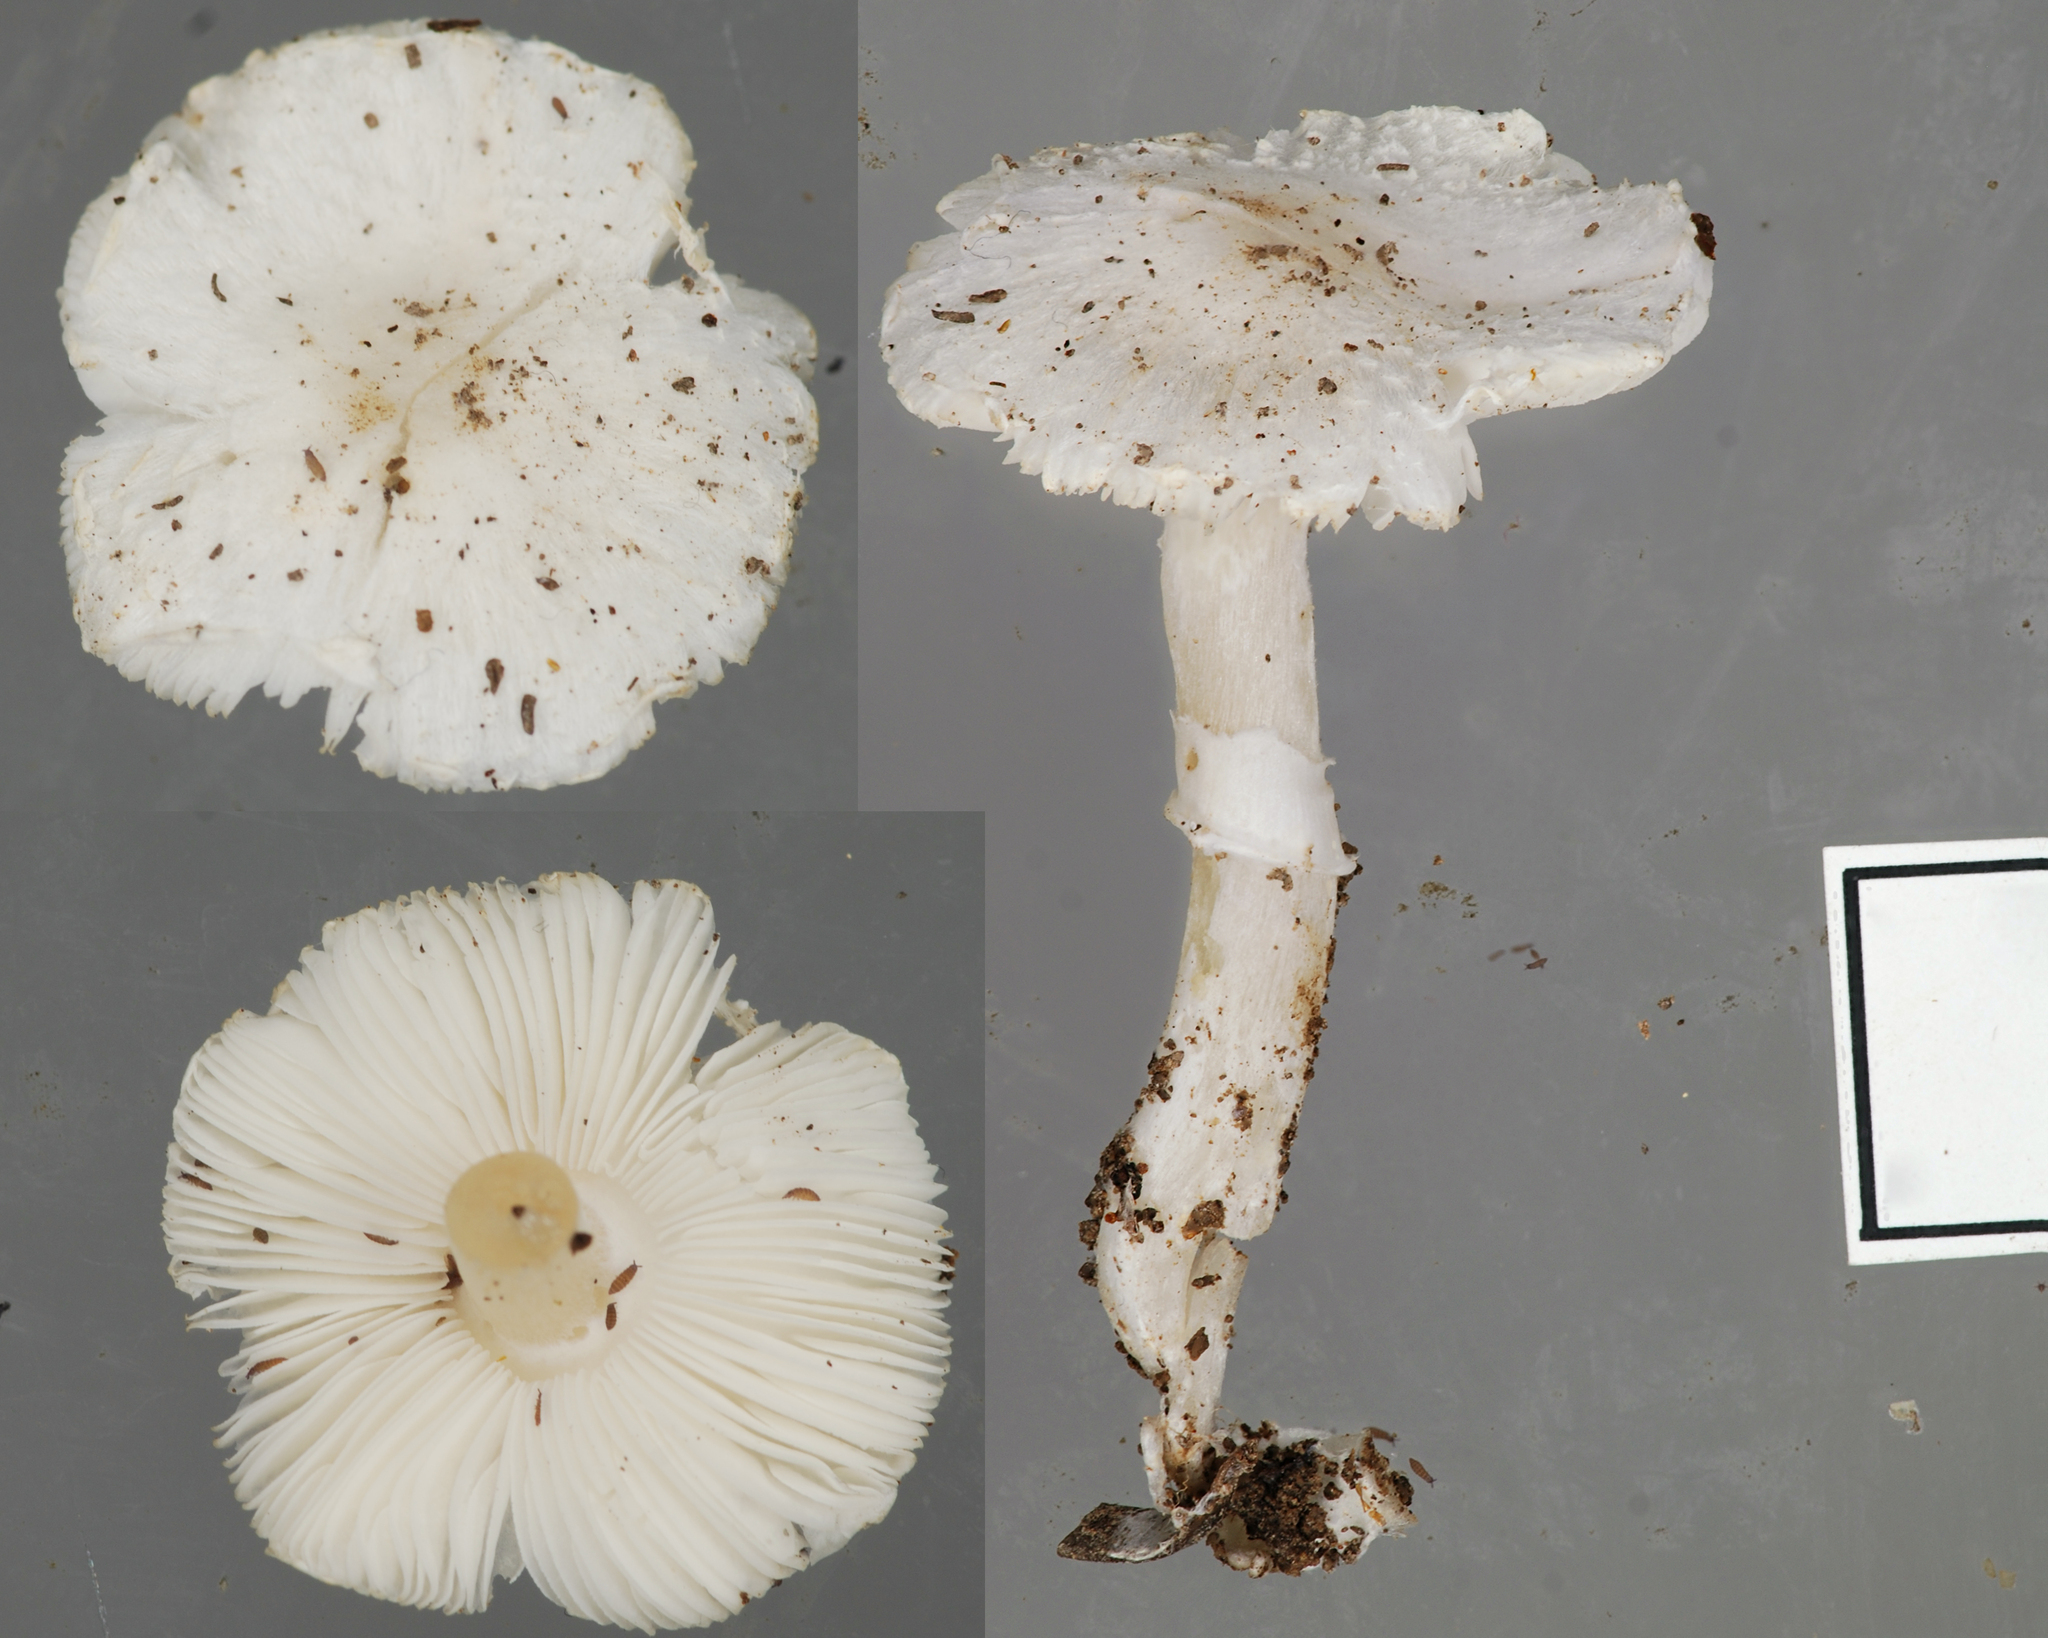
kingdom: Fungi
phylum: Basidiomycota
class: Agaricomycetes
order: Agaricales
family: Agaricaceae
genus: Leucoagaricus
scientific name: Leucoagaricus serenus
